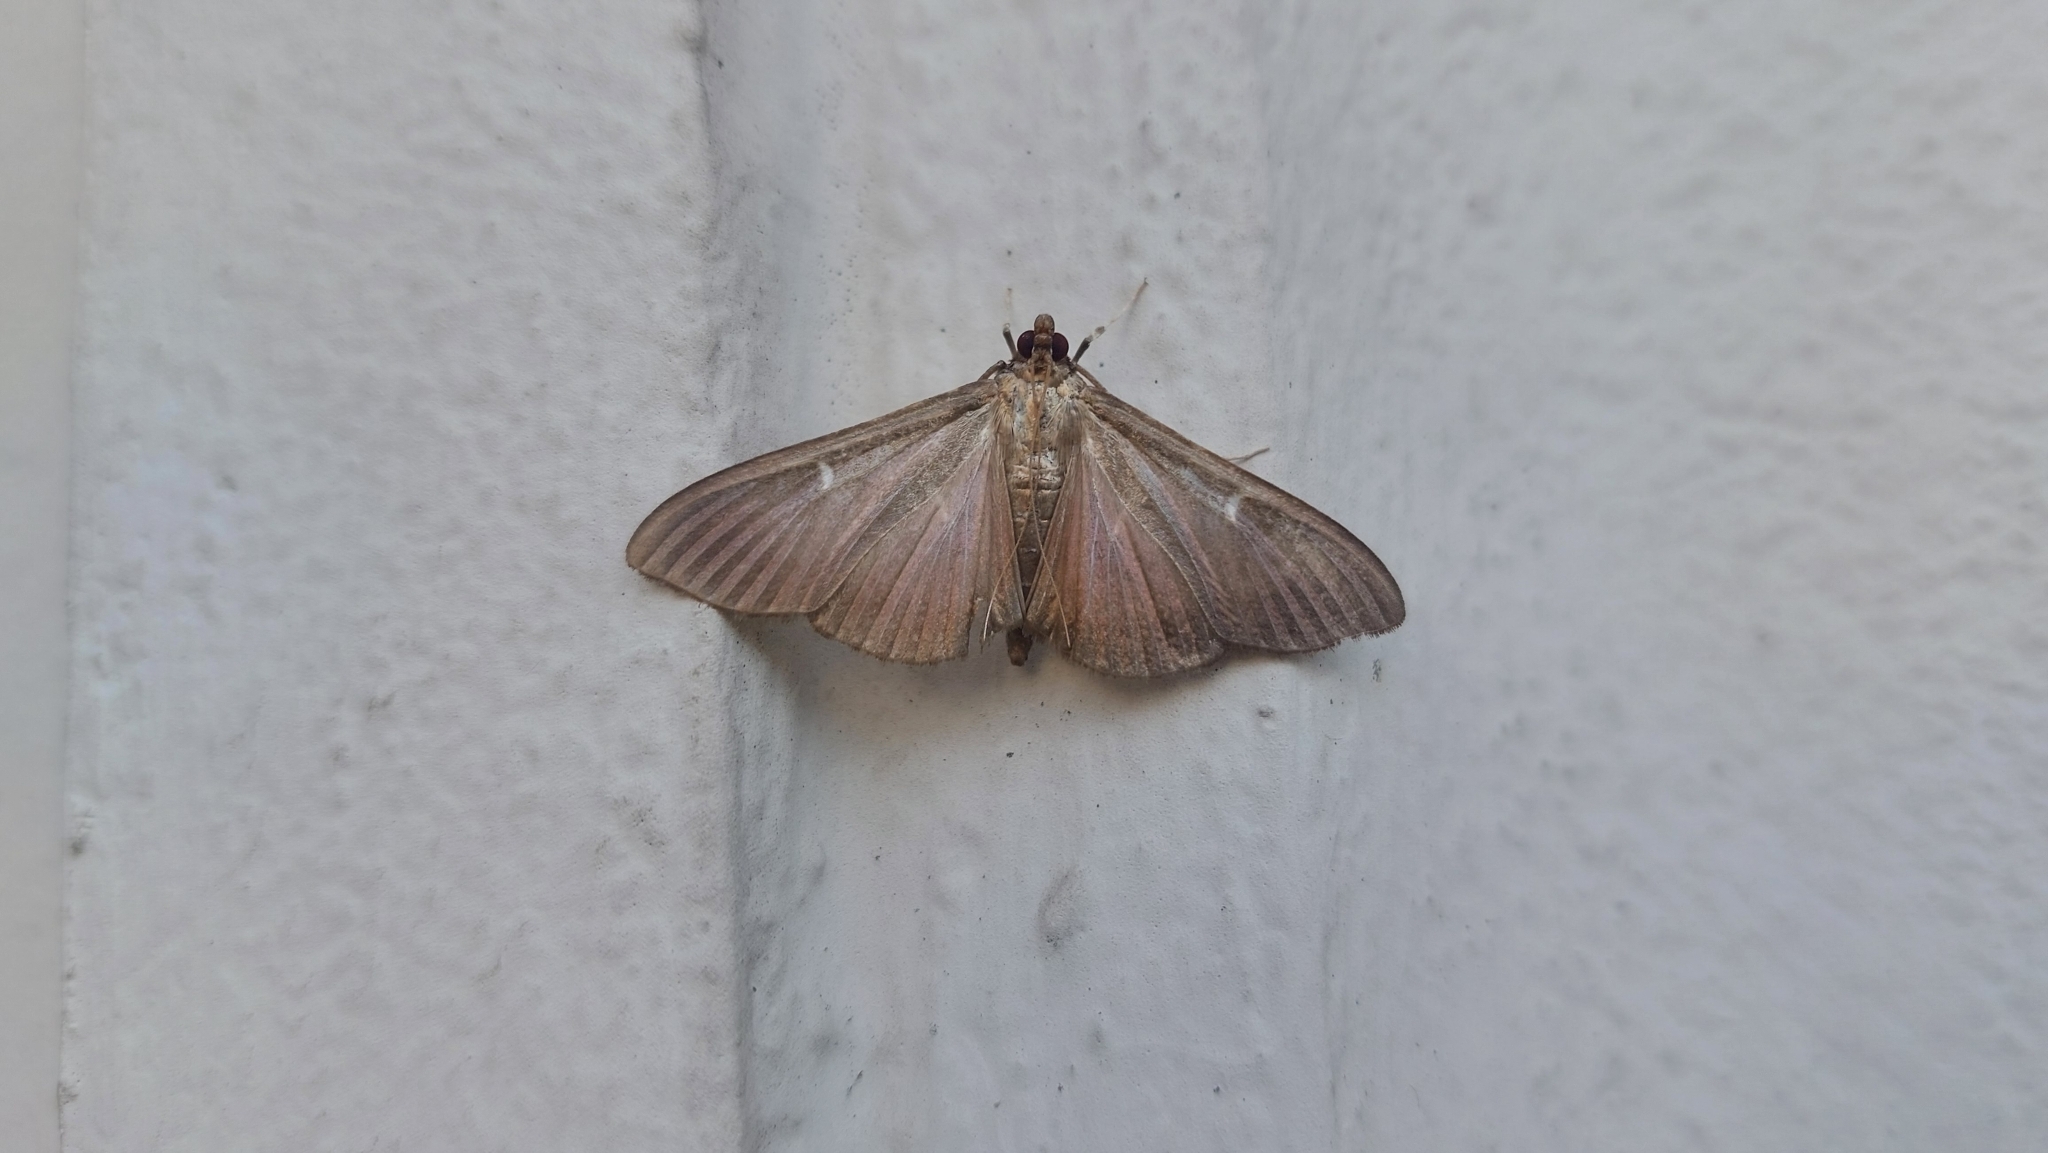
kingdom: Animalia
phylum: Arthropoda
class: Insecta
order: Lepidoptera
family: Crambidae
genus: Cydalima
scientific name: Cydalima perspectalis
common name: Box tree moth
